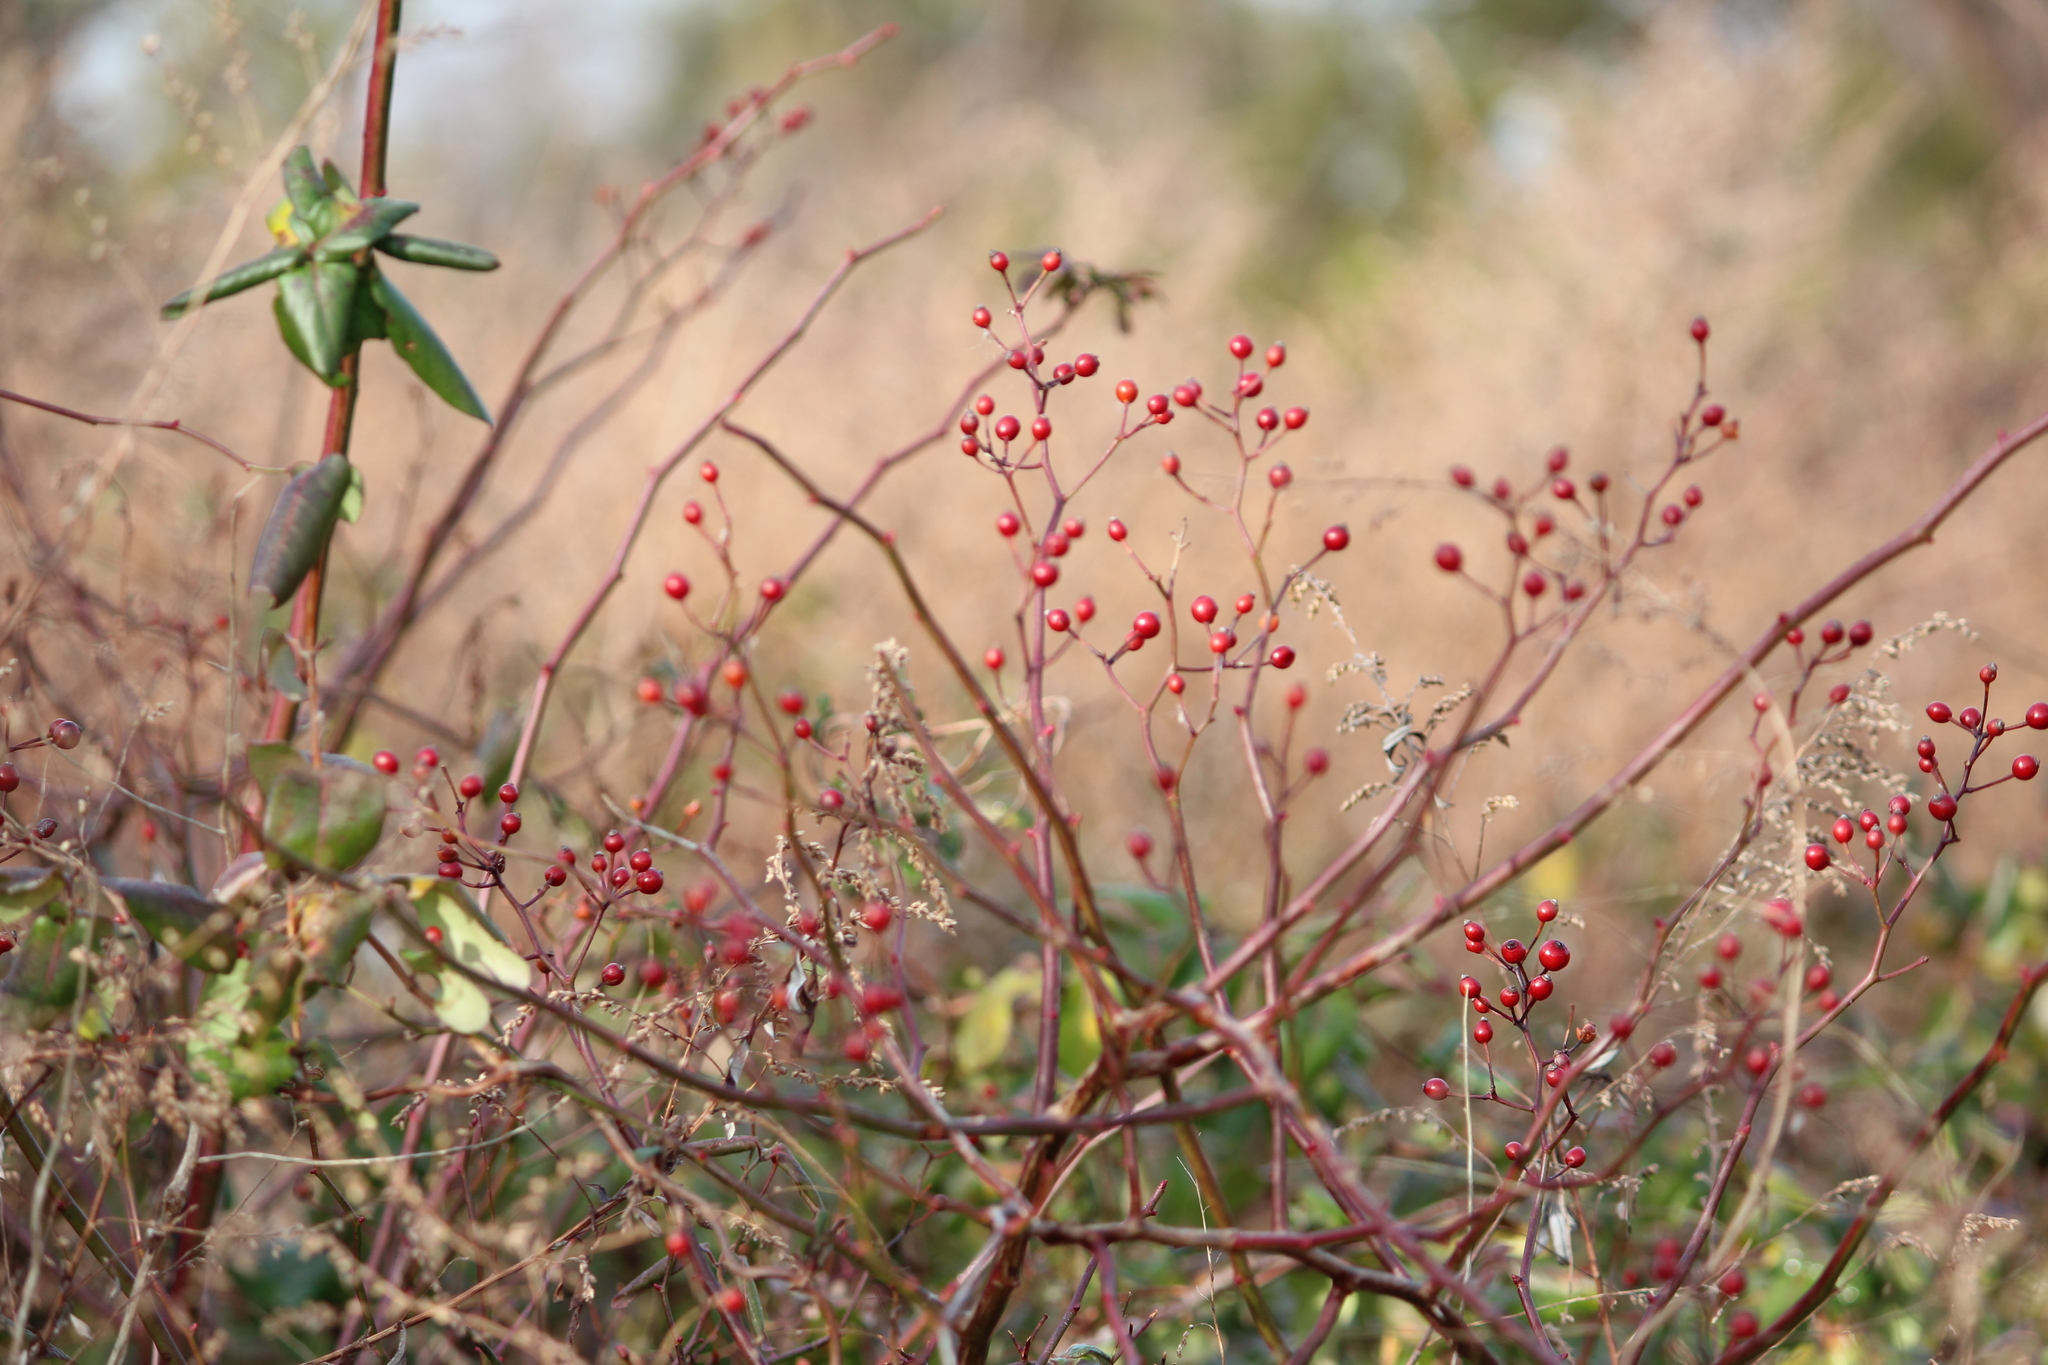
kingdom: Plantae
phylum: Tracheophyta
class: Magnoliopsida
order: Rosales
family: Rosaceae
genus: Rosa
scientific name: Rosa multiflora
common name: Multiflora rose
